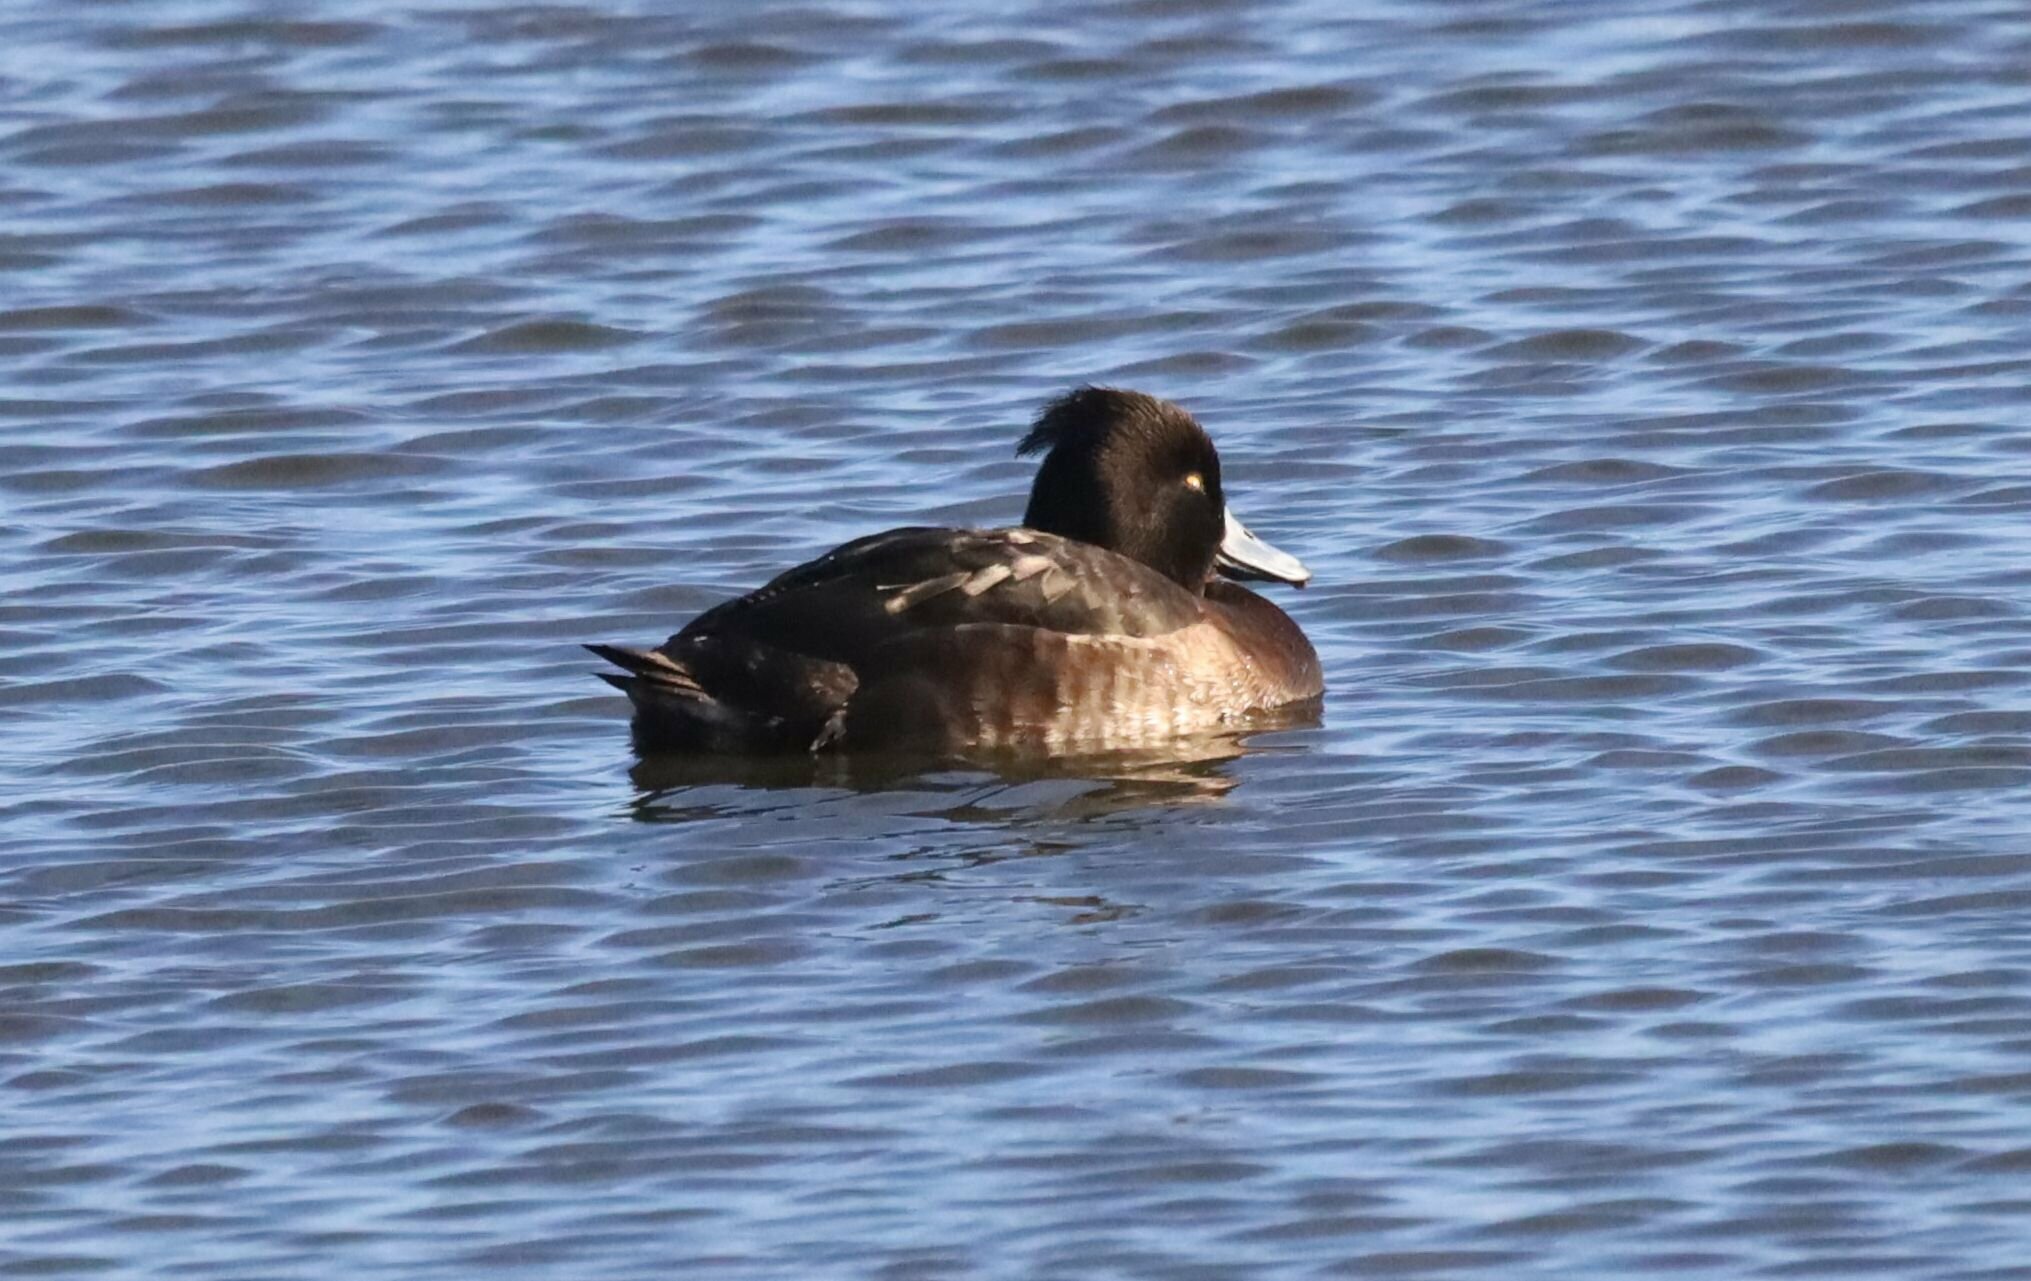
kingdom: Animalia
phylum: Chordata
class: Aves
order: Anseriformes
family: Anatidae
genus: Aythya
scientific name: Aythya fuligula
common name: Tufted duck
